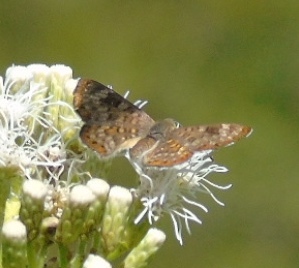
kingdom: Animalia
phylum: Arthropoda
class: Insecta
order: Lepidoptera
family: Riodinidae
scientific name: Riodinidae
